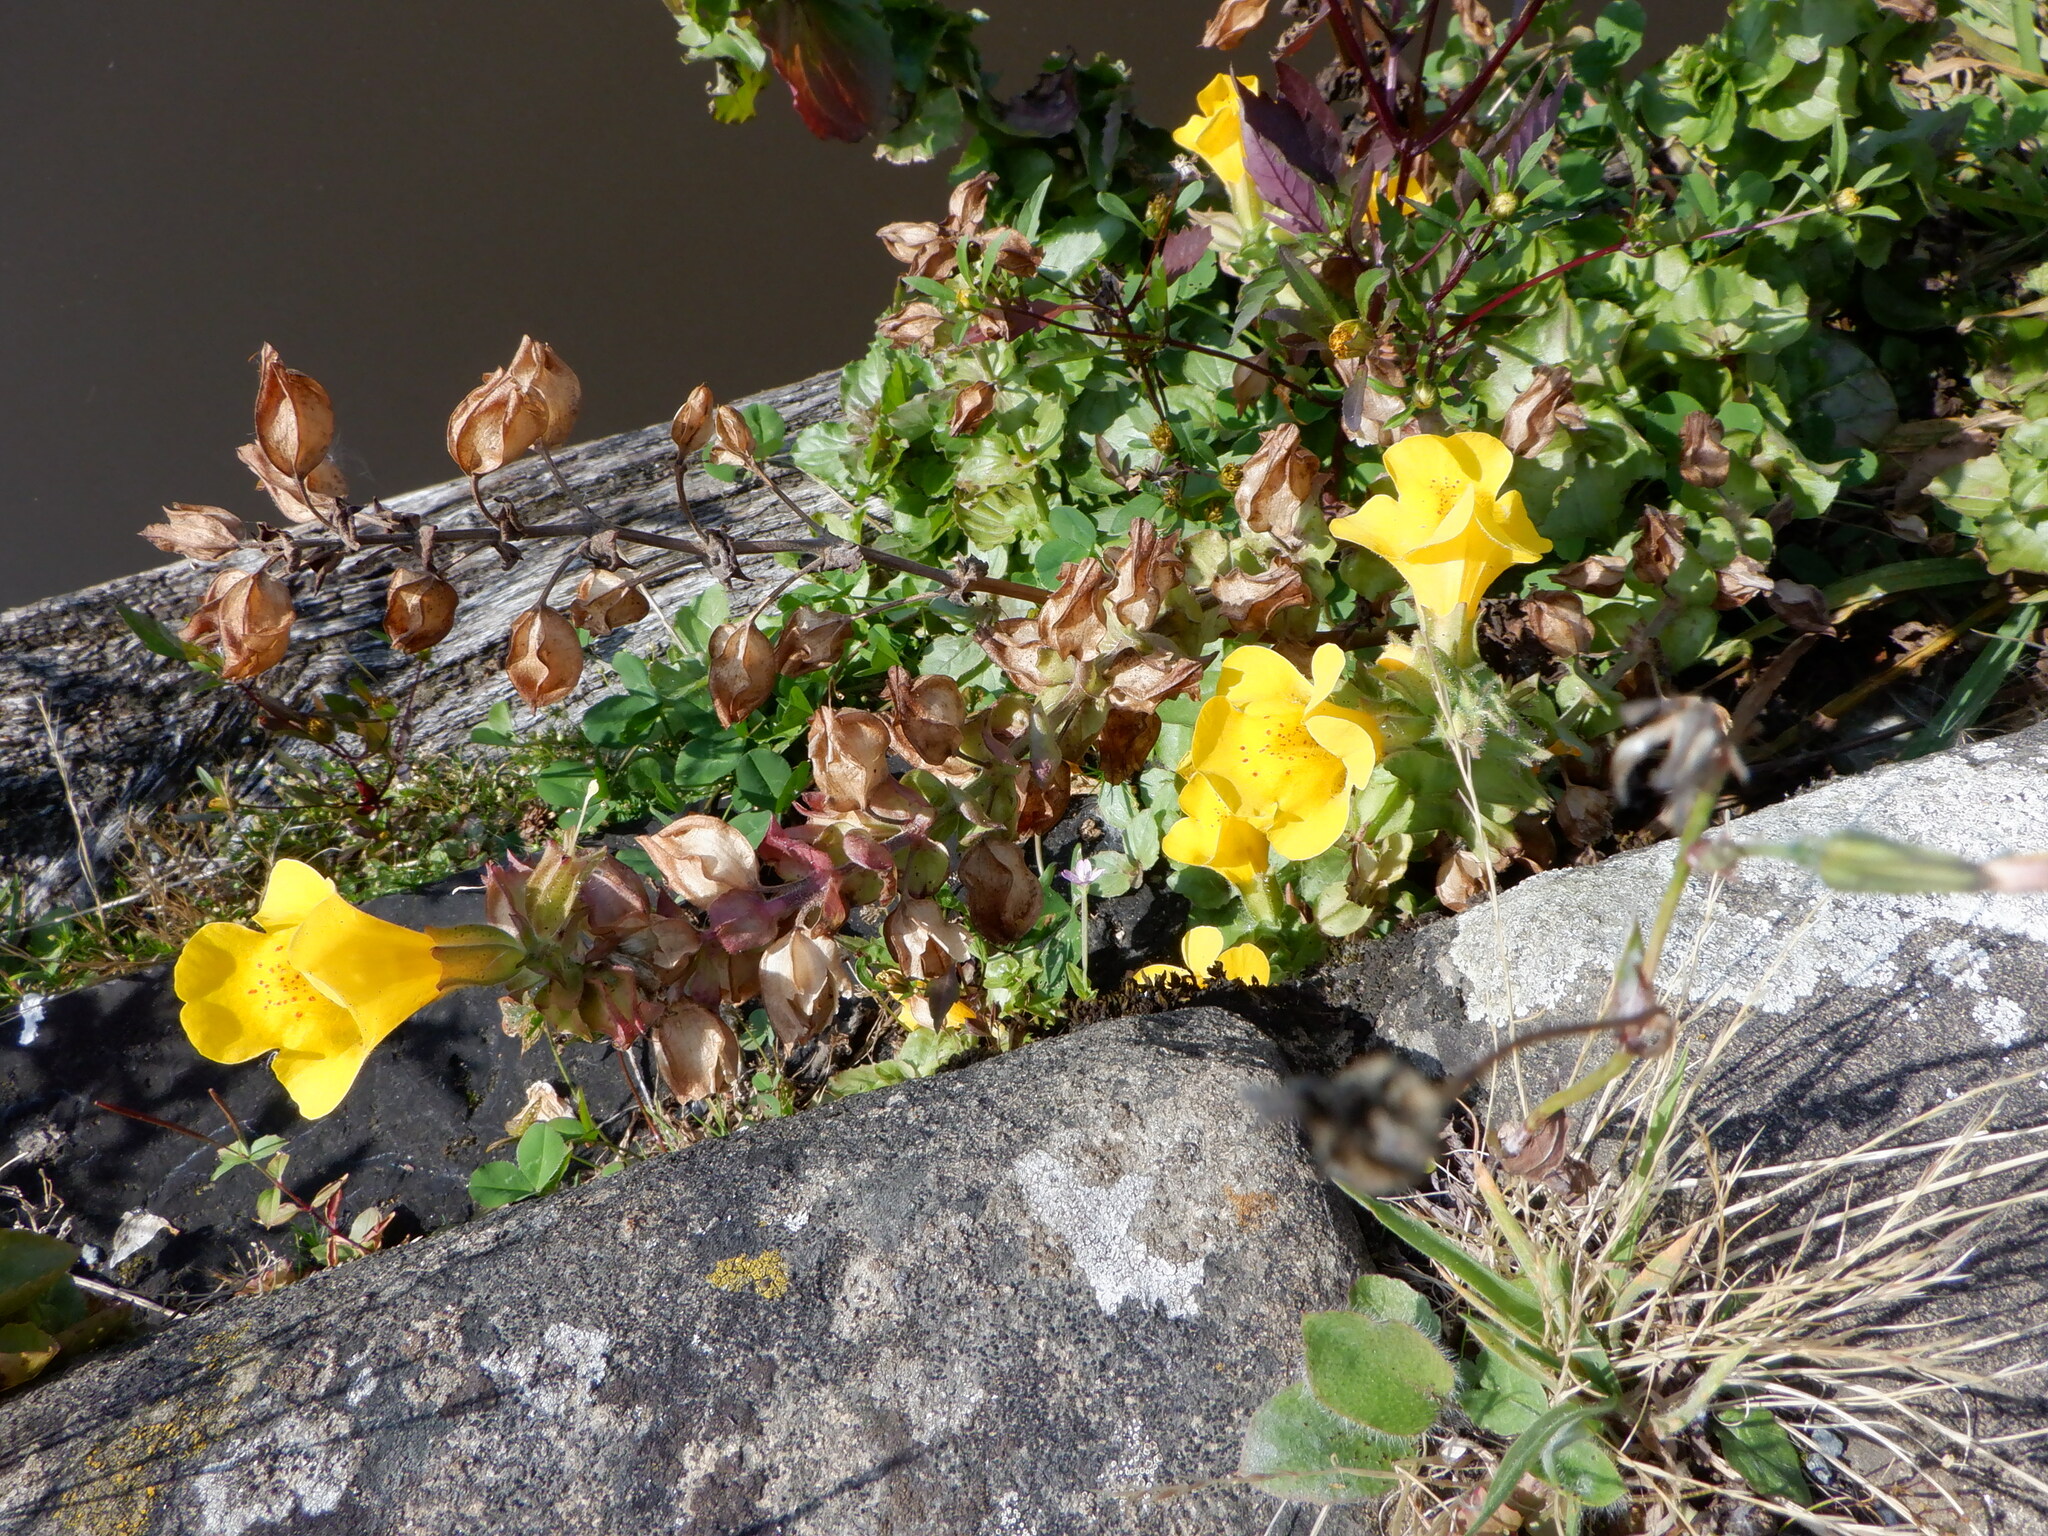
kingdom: Plantae
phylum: Tracheophyta
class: Magnoliopsida
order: Lamiales
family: Phrymaceae
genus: Erythranthe
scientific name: Erythranthe guttata
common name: Monkeyflower
